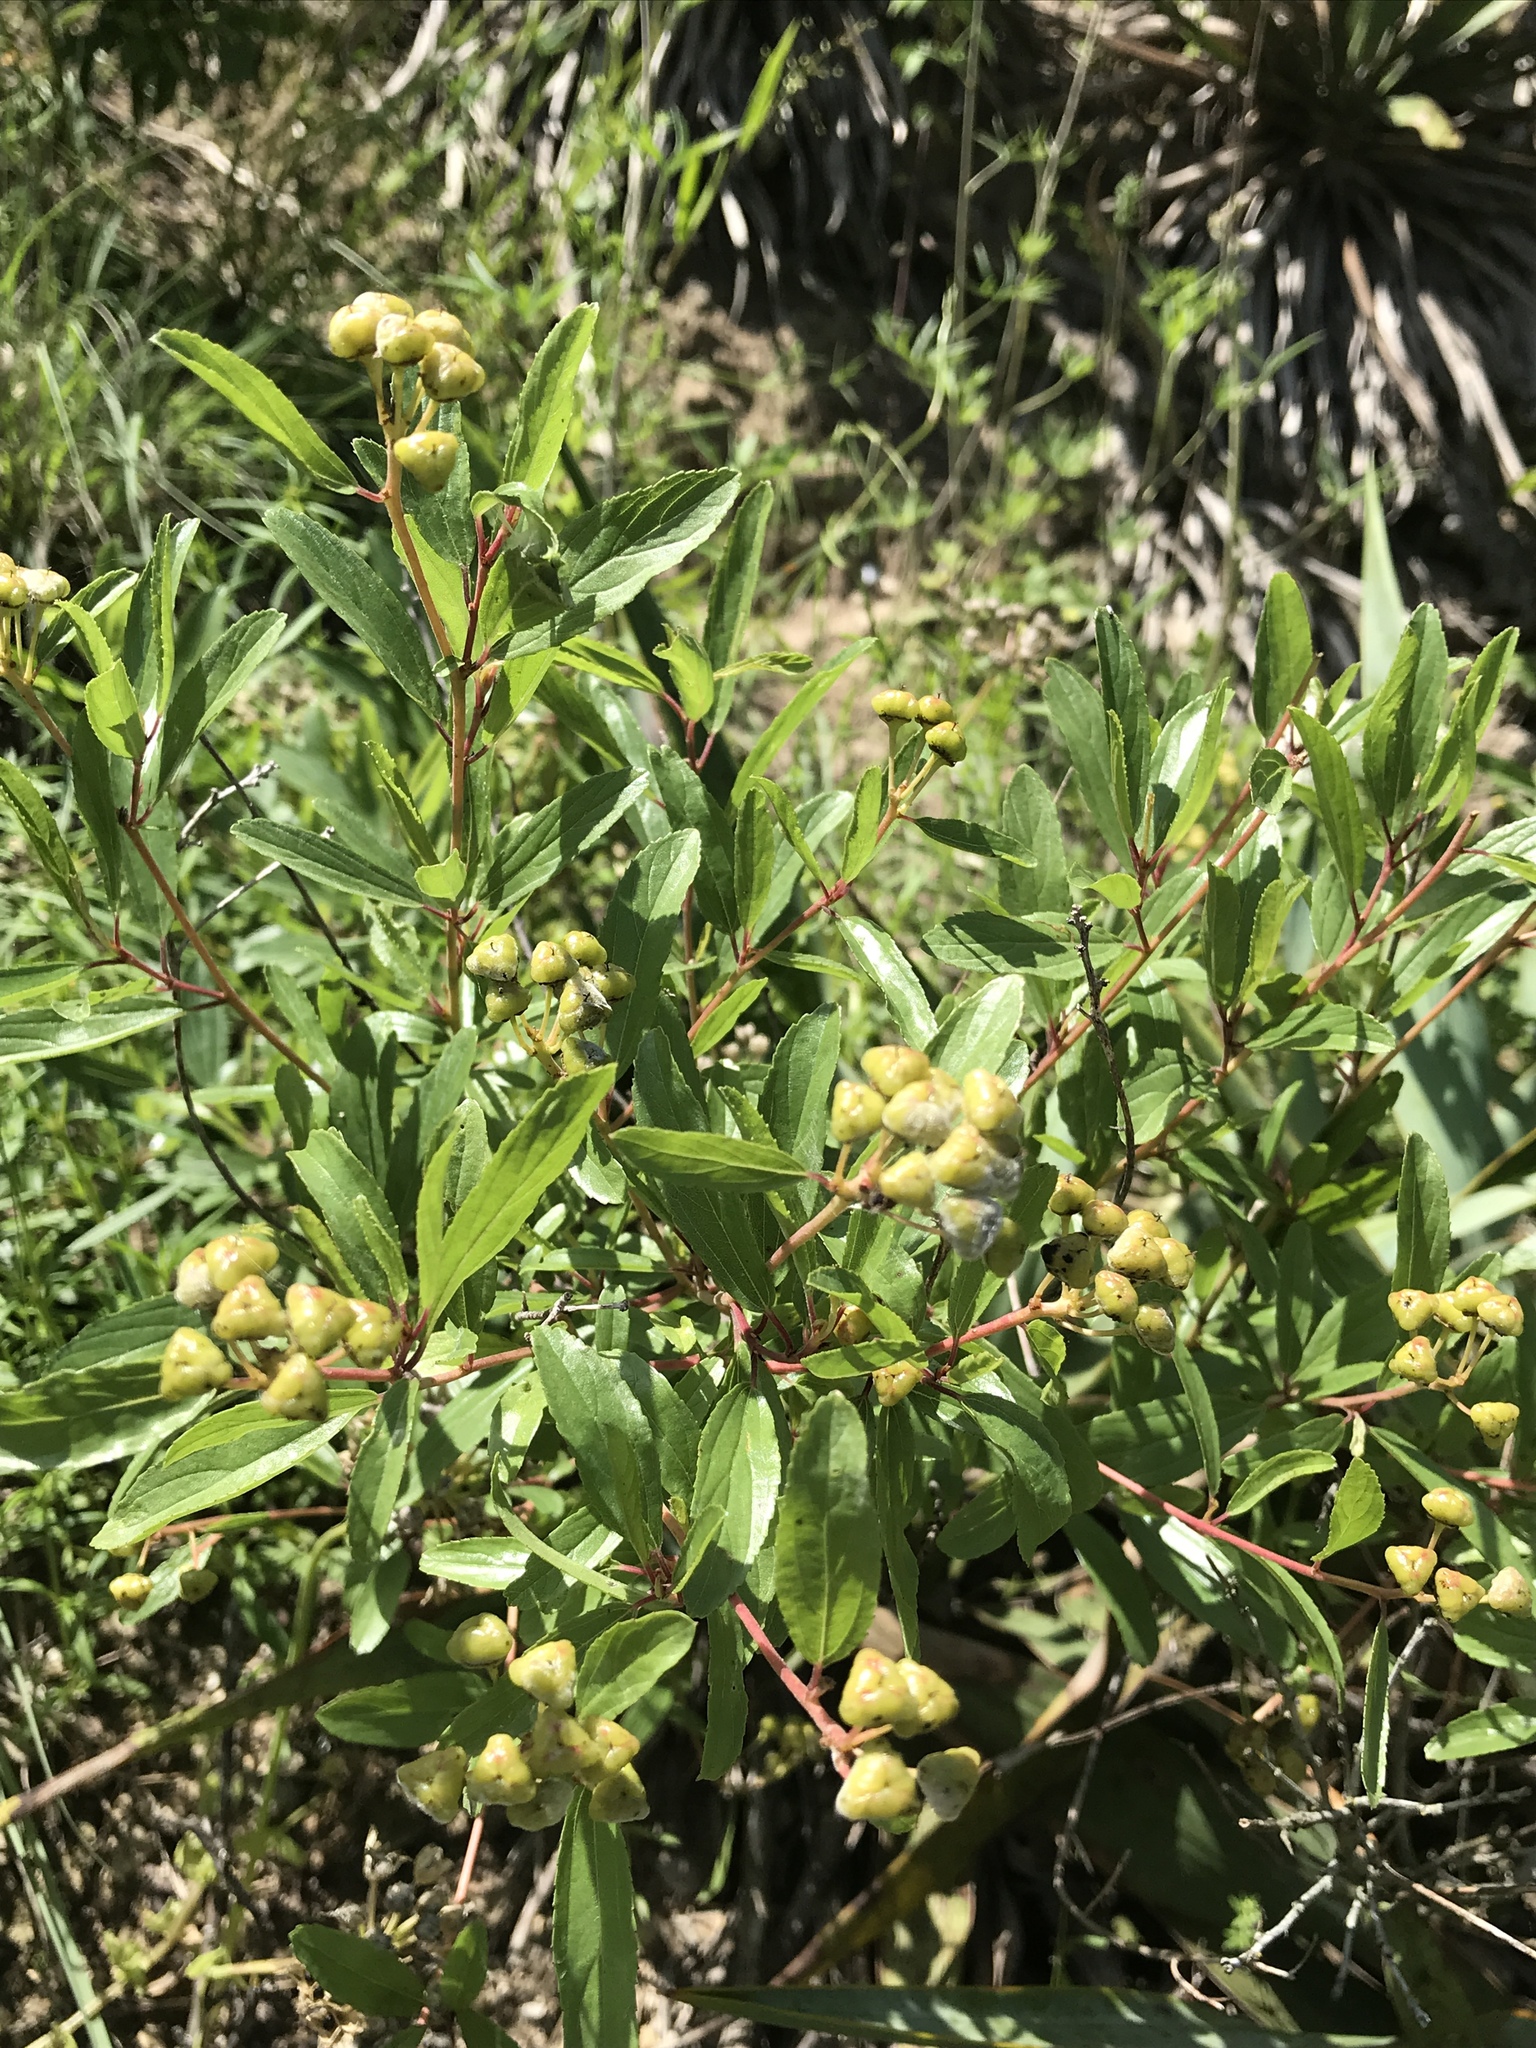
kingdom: Plantae
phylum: Tracheophyta
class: Magnoliopsida
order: Rosales
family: Rhamnaceae
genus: Ceanothus
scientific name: Ceanothus herbaceus
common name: Inland ceanothus
